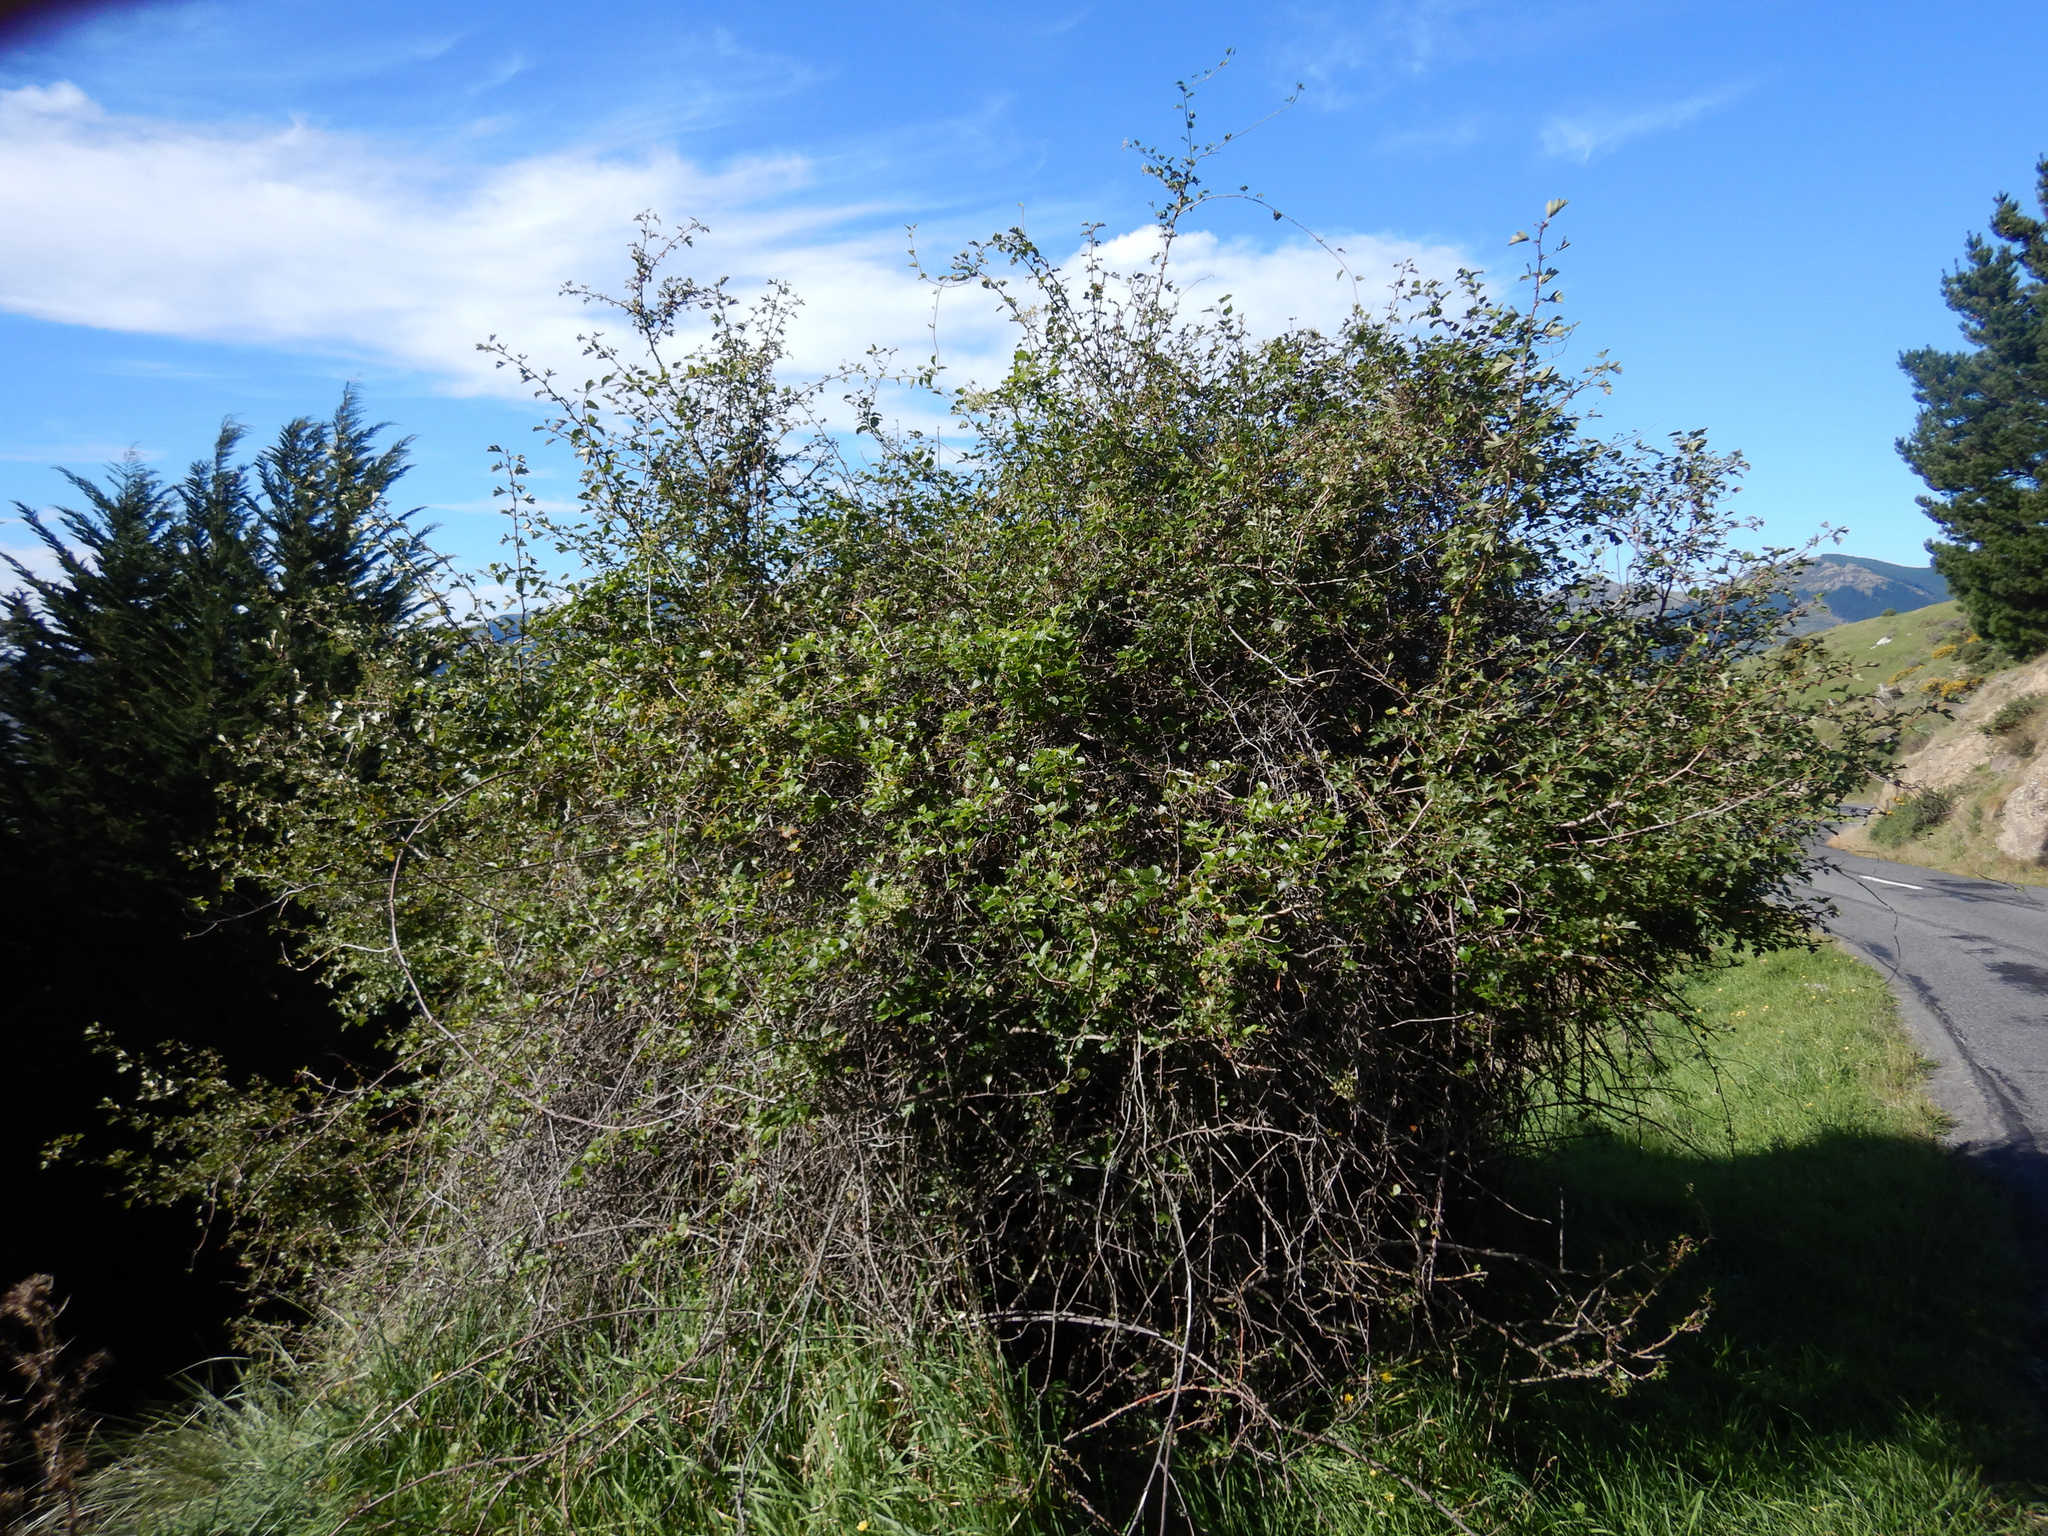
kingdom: Plantae
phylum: Tracheophyta
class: Magnoliopsida
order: Caryophyllales
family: Polygonaceae
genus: Muehlenbeckia
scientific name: Muehlenbeckia australis
